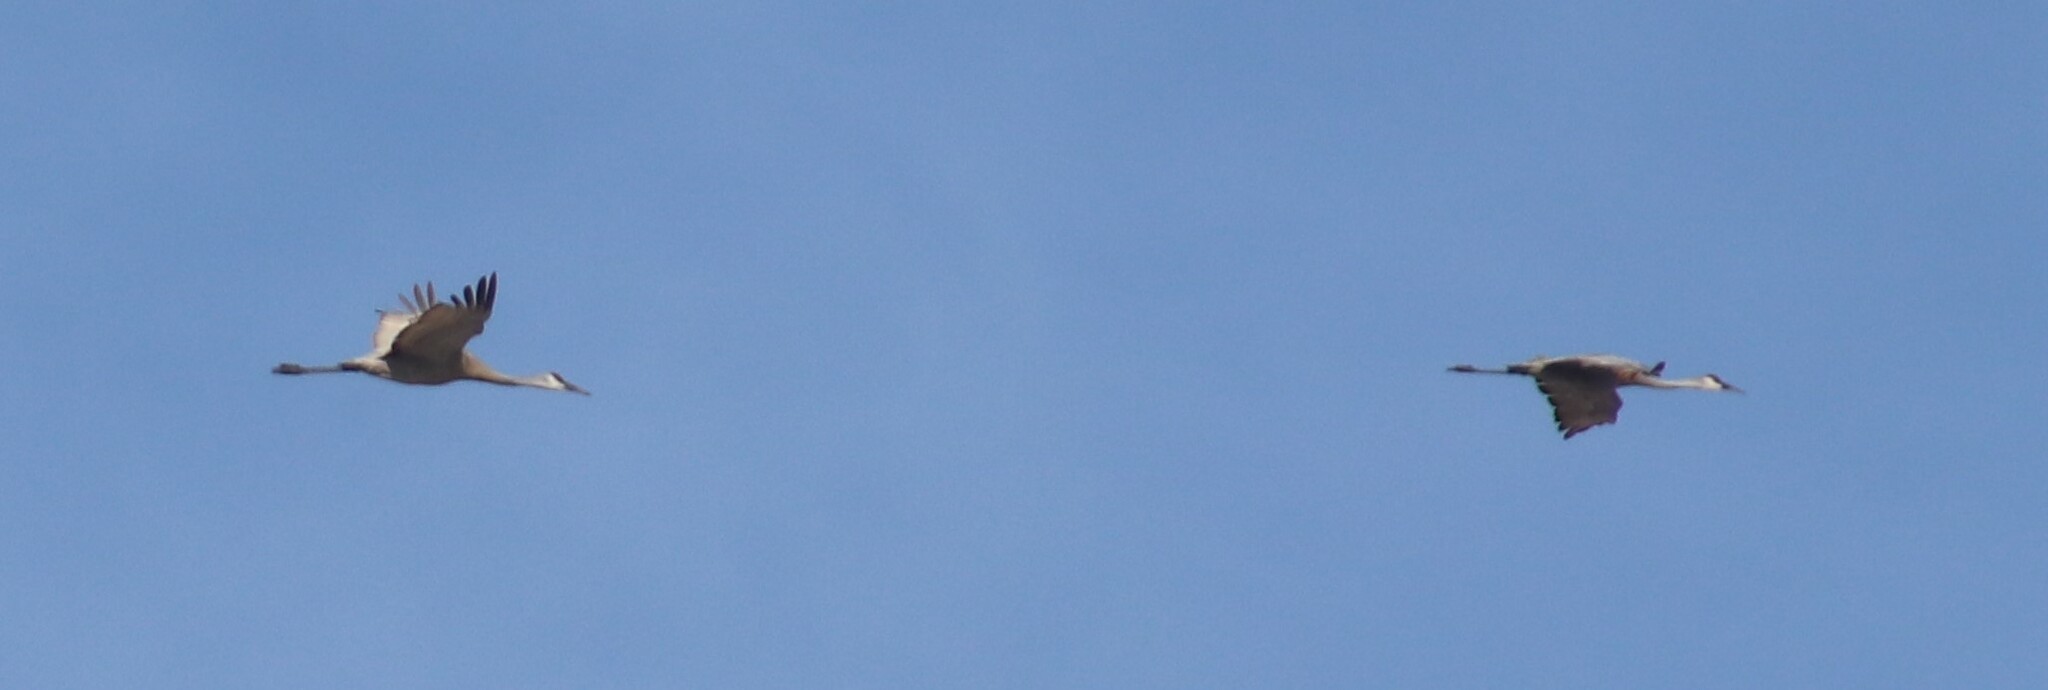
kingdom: Animalia
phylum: Chordata
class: Aves
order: Gruiformes
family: Gruidae
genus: Grus
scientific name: Grus canadensis
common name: Sandhill crane
